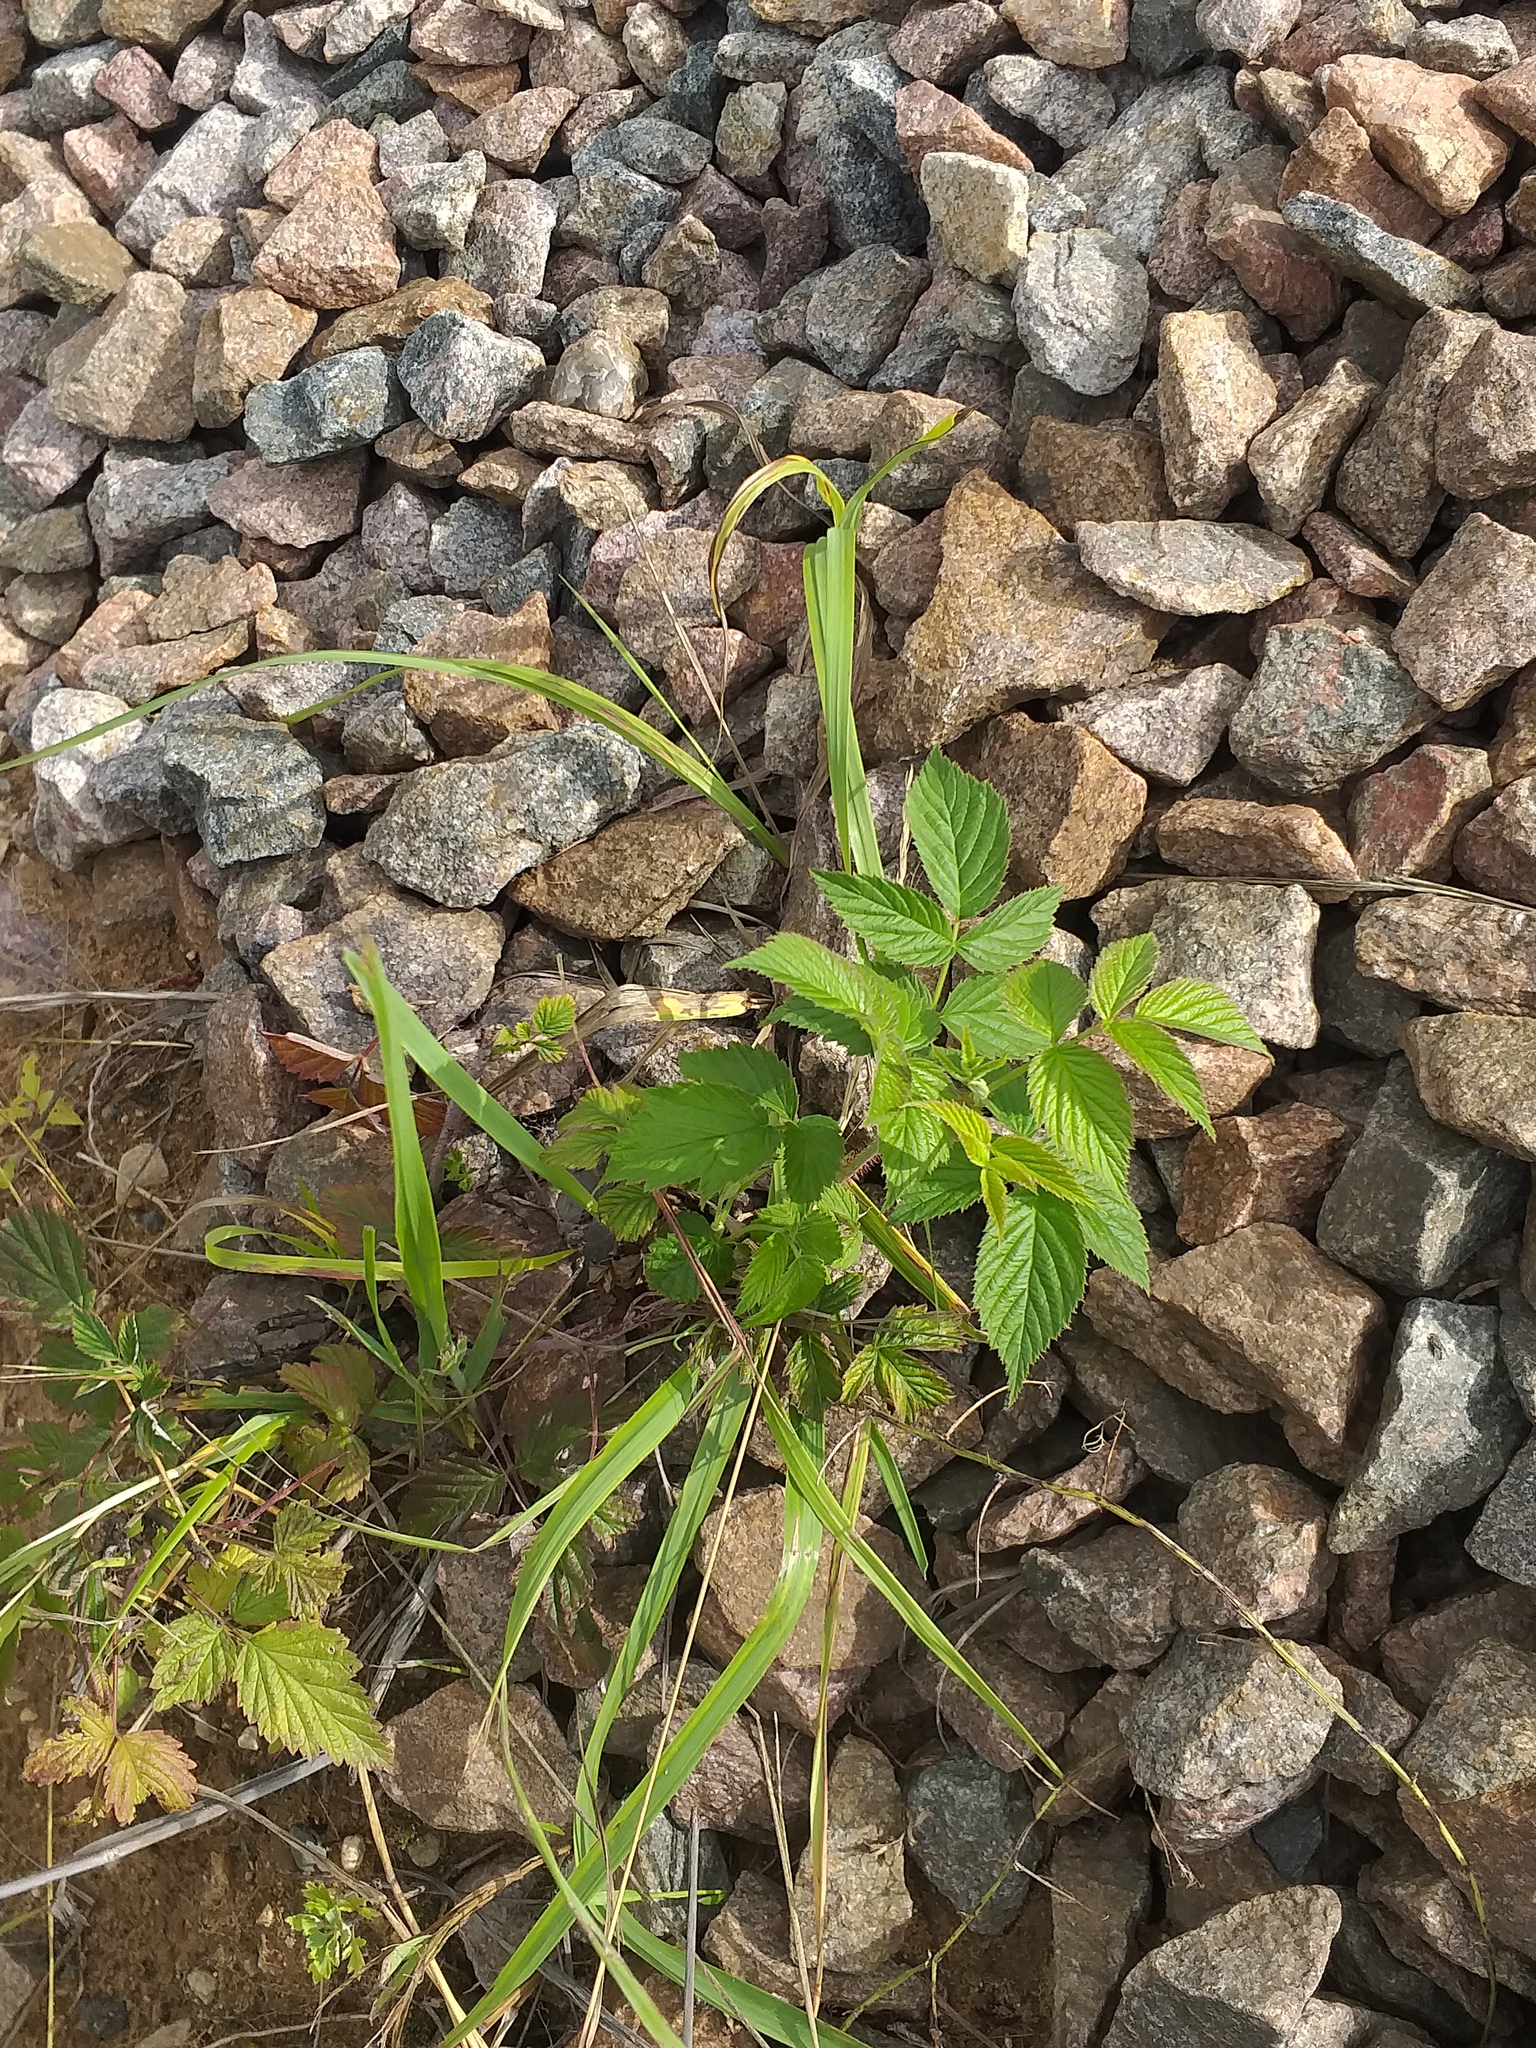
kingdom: Plantae
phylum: Tracheophyta
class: Magnoliopsida
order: Rosales
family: Rosaceae
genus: Rubus
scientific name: Rubus idaeus
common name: Raspberry
